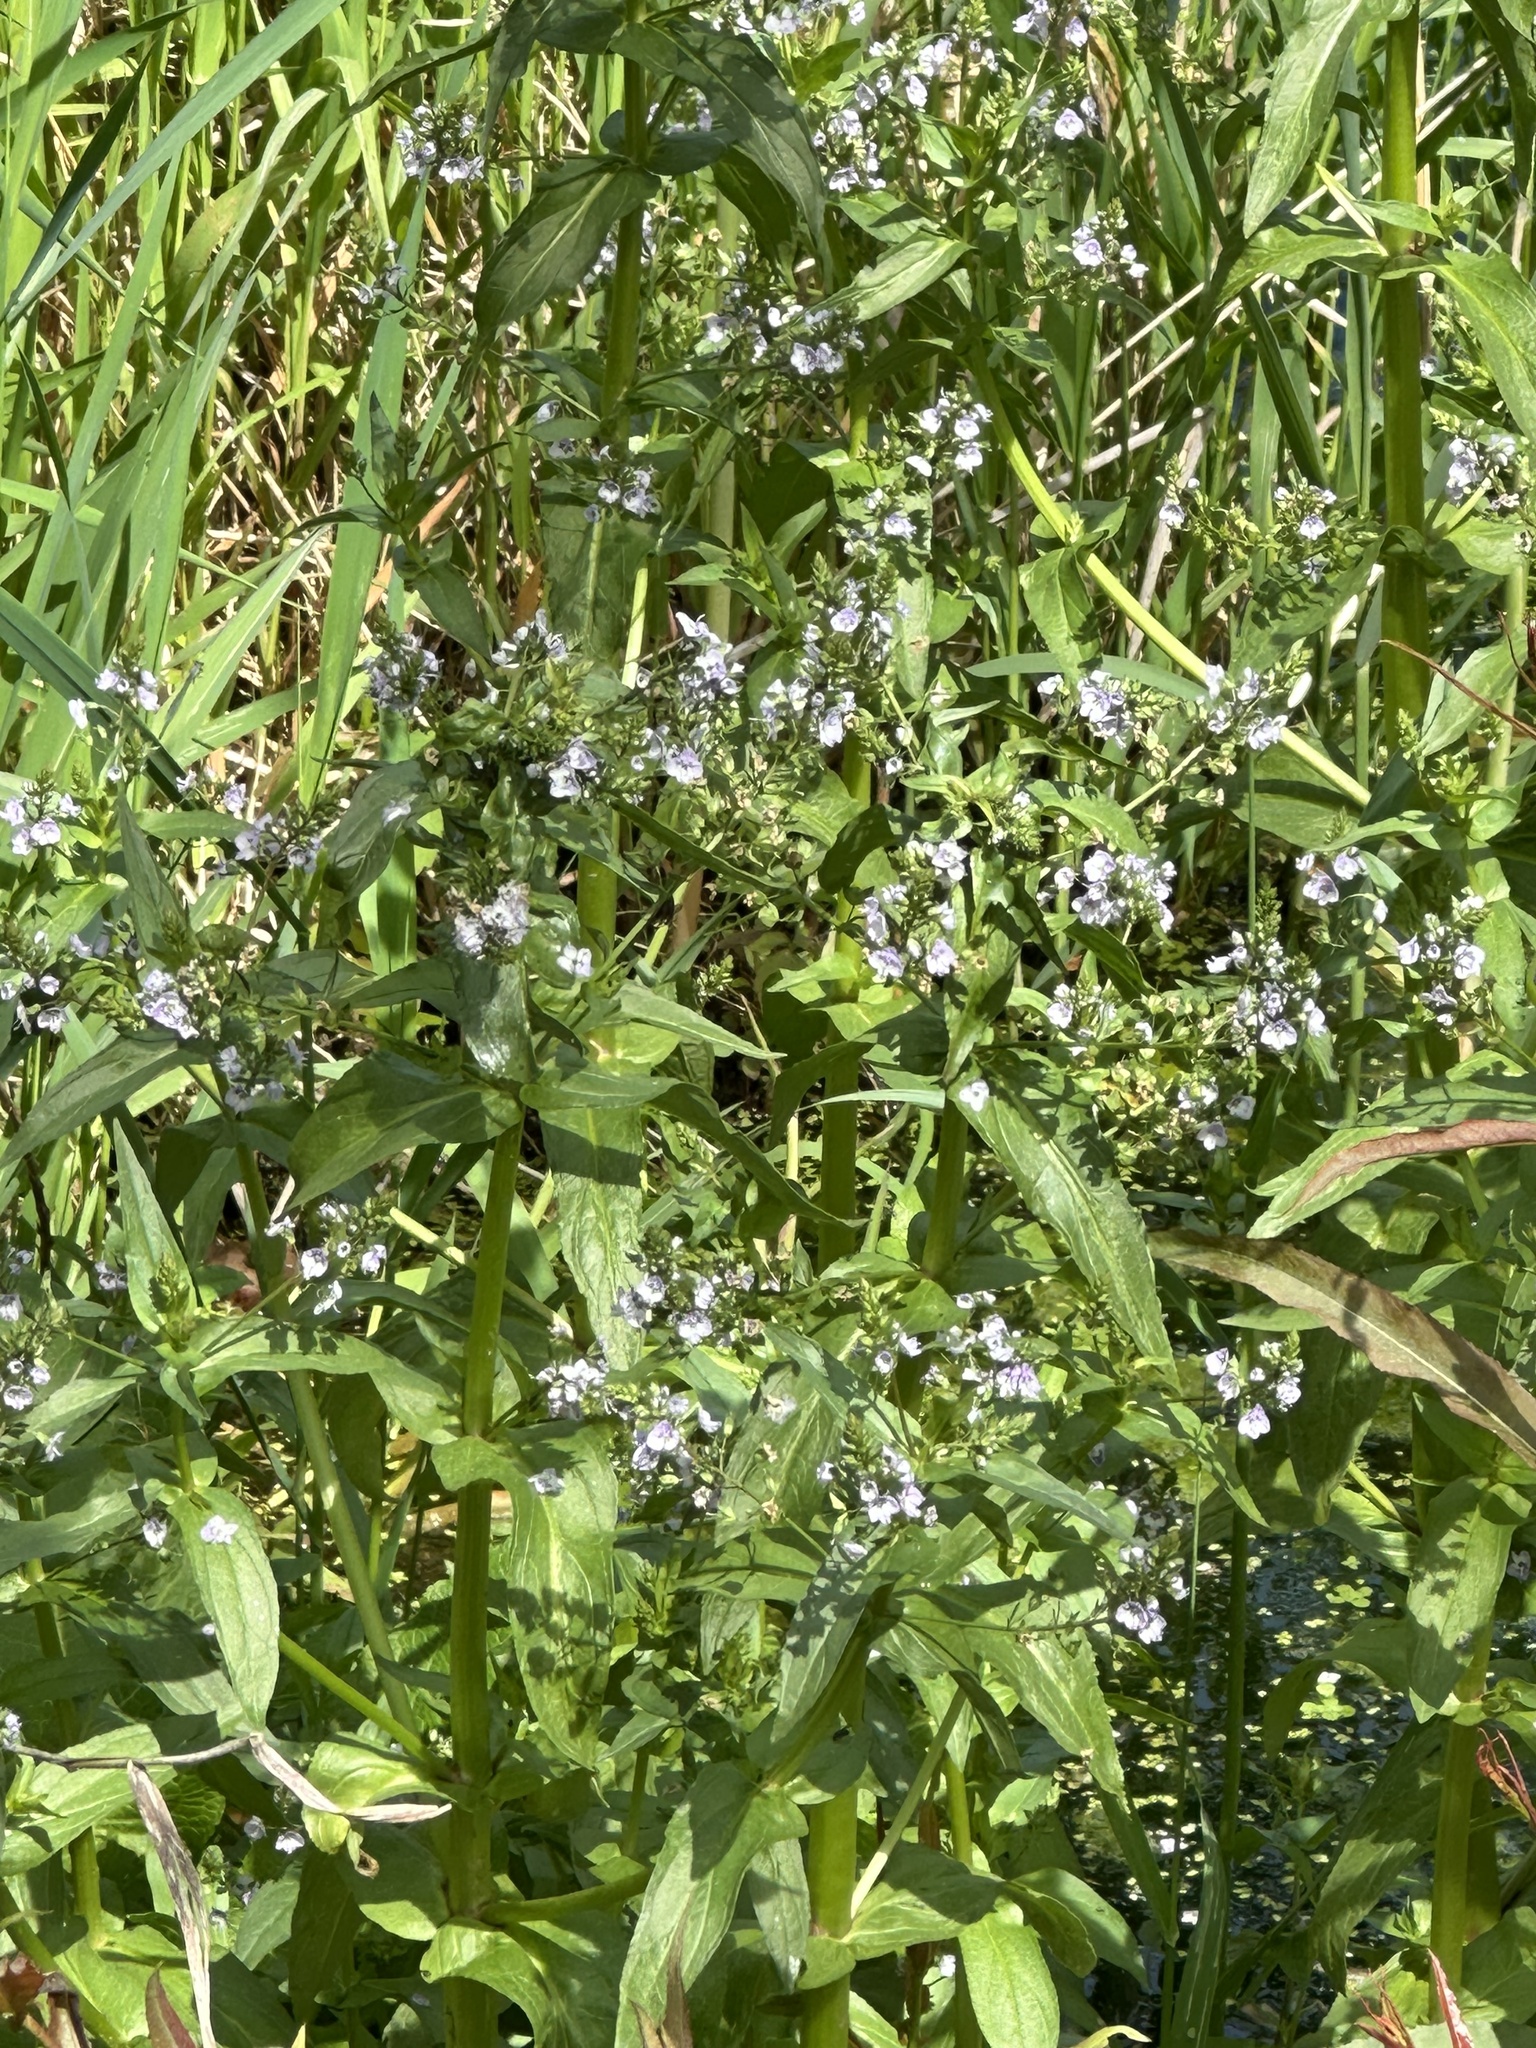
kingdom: Plantae
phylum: Tracheophyta
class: Magnoliopsida
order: Lamiales
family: Plantaginaceae
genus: Veronica
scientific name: Veronica anagallis-aquatica
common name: Water speedwell
